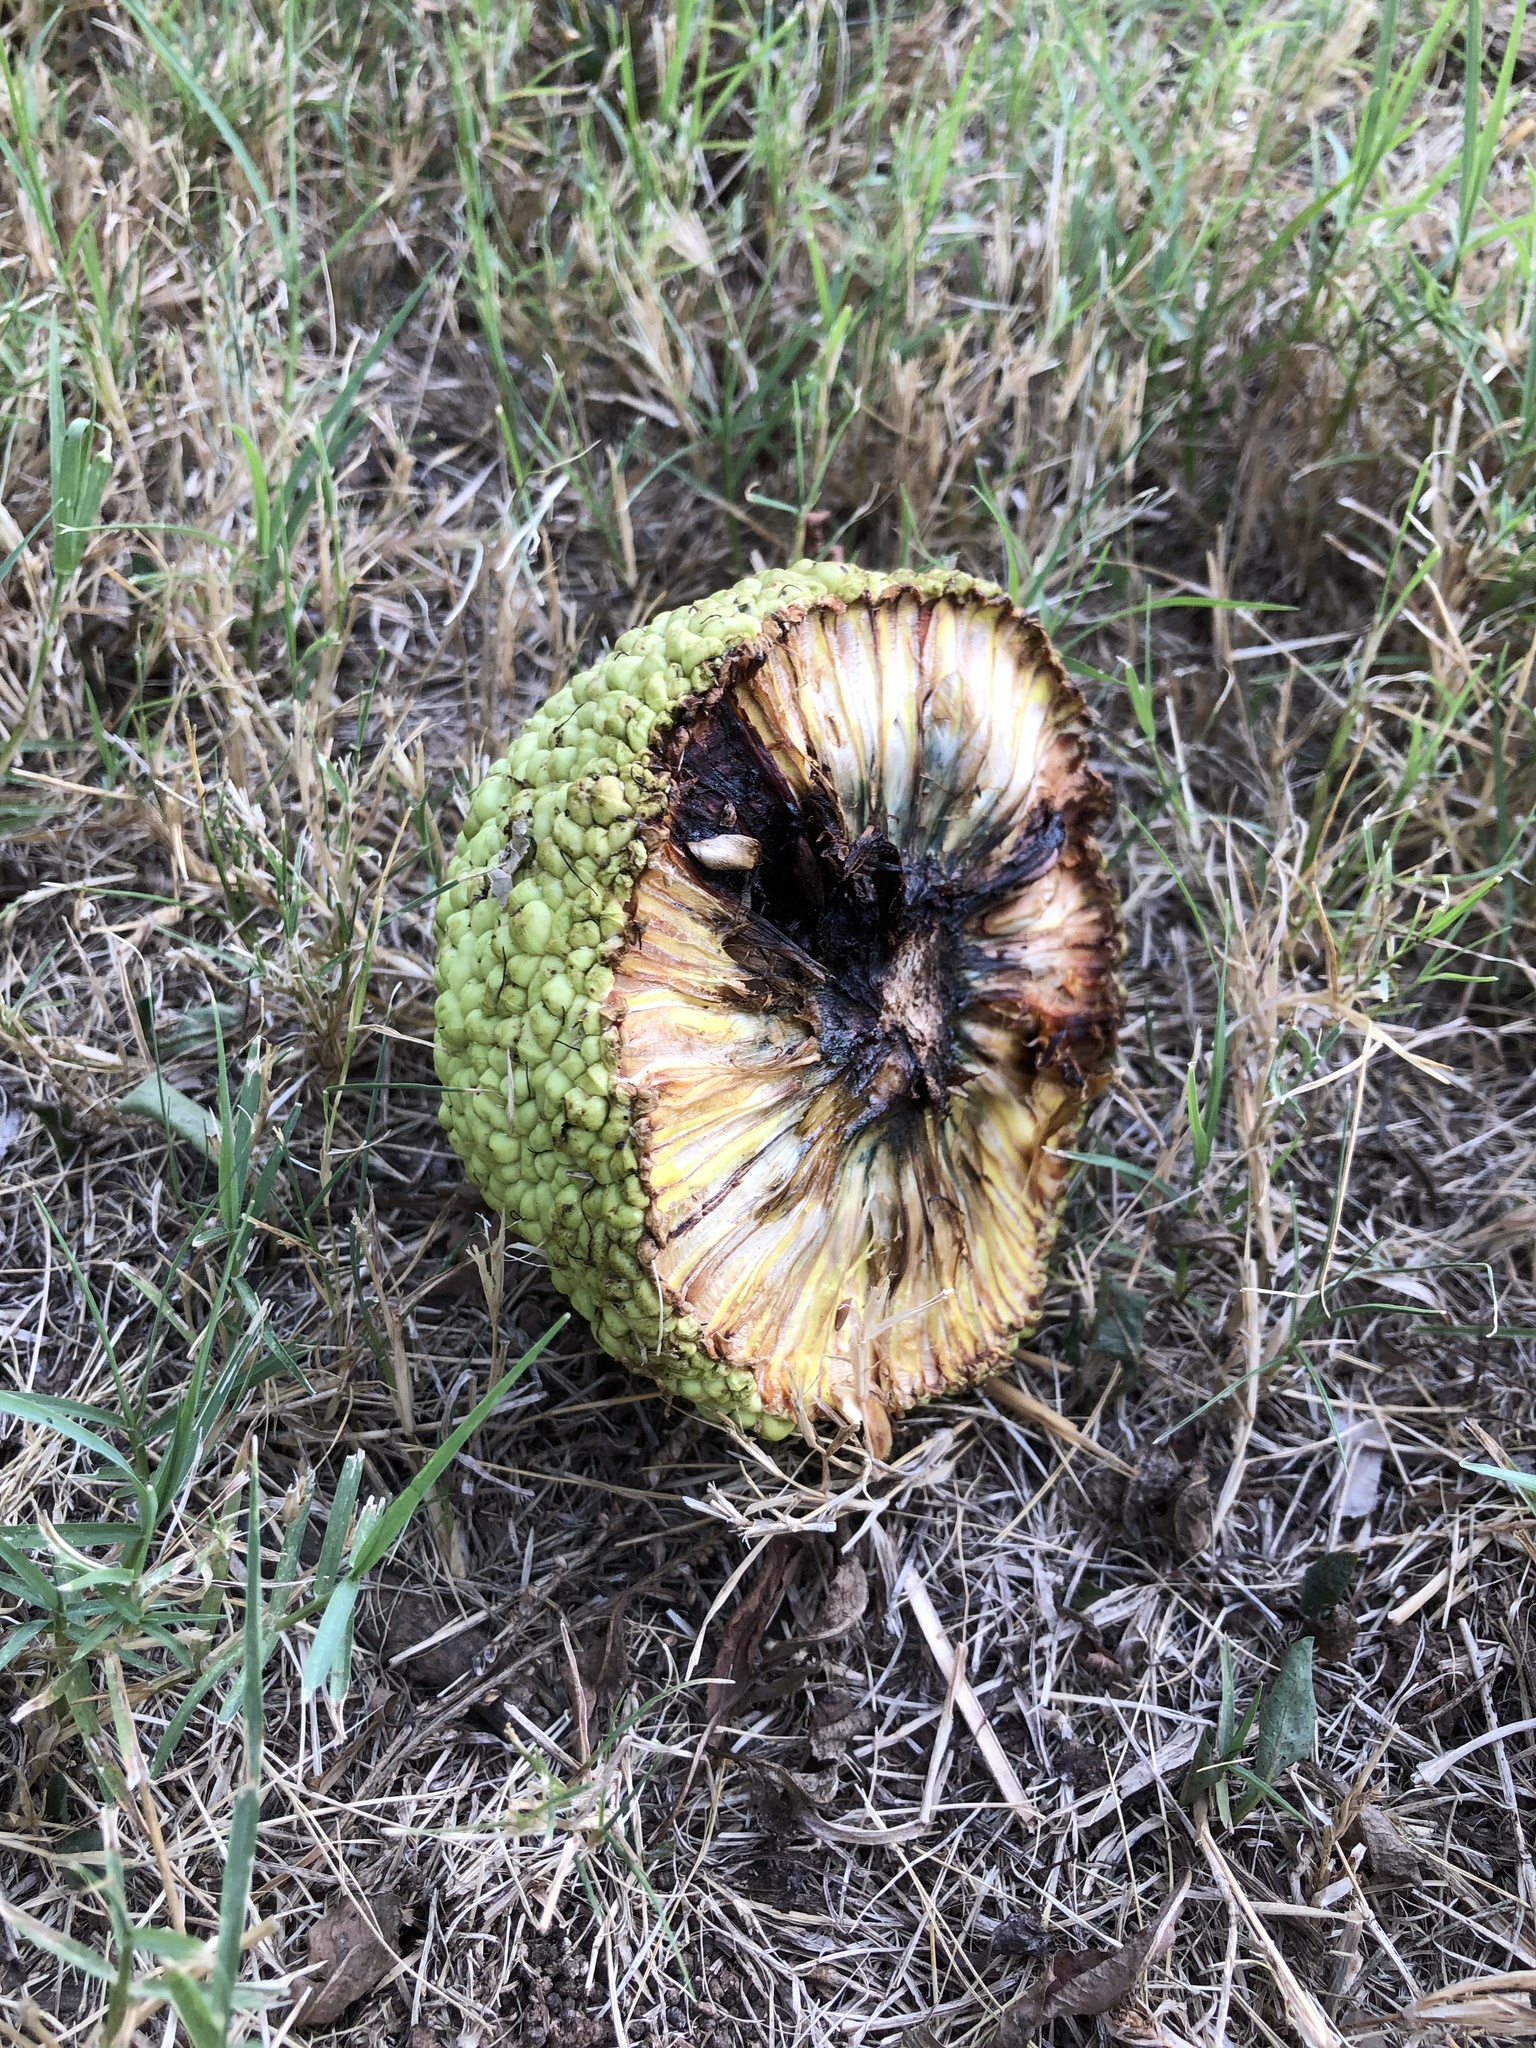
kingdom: Plantae
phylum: Tracheophyta
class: Magnoliopsida
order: Rosales
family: Moraceae
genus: Maclura
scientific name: Maclura pomifera
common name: Osage-orange
